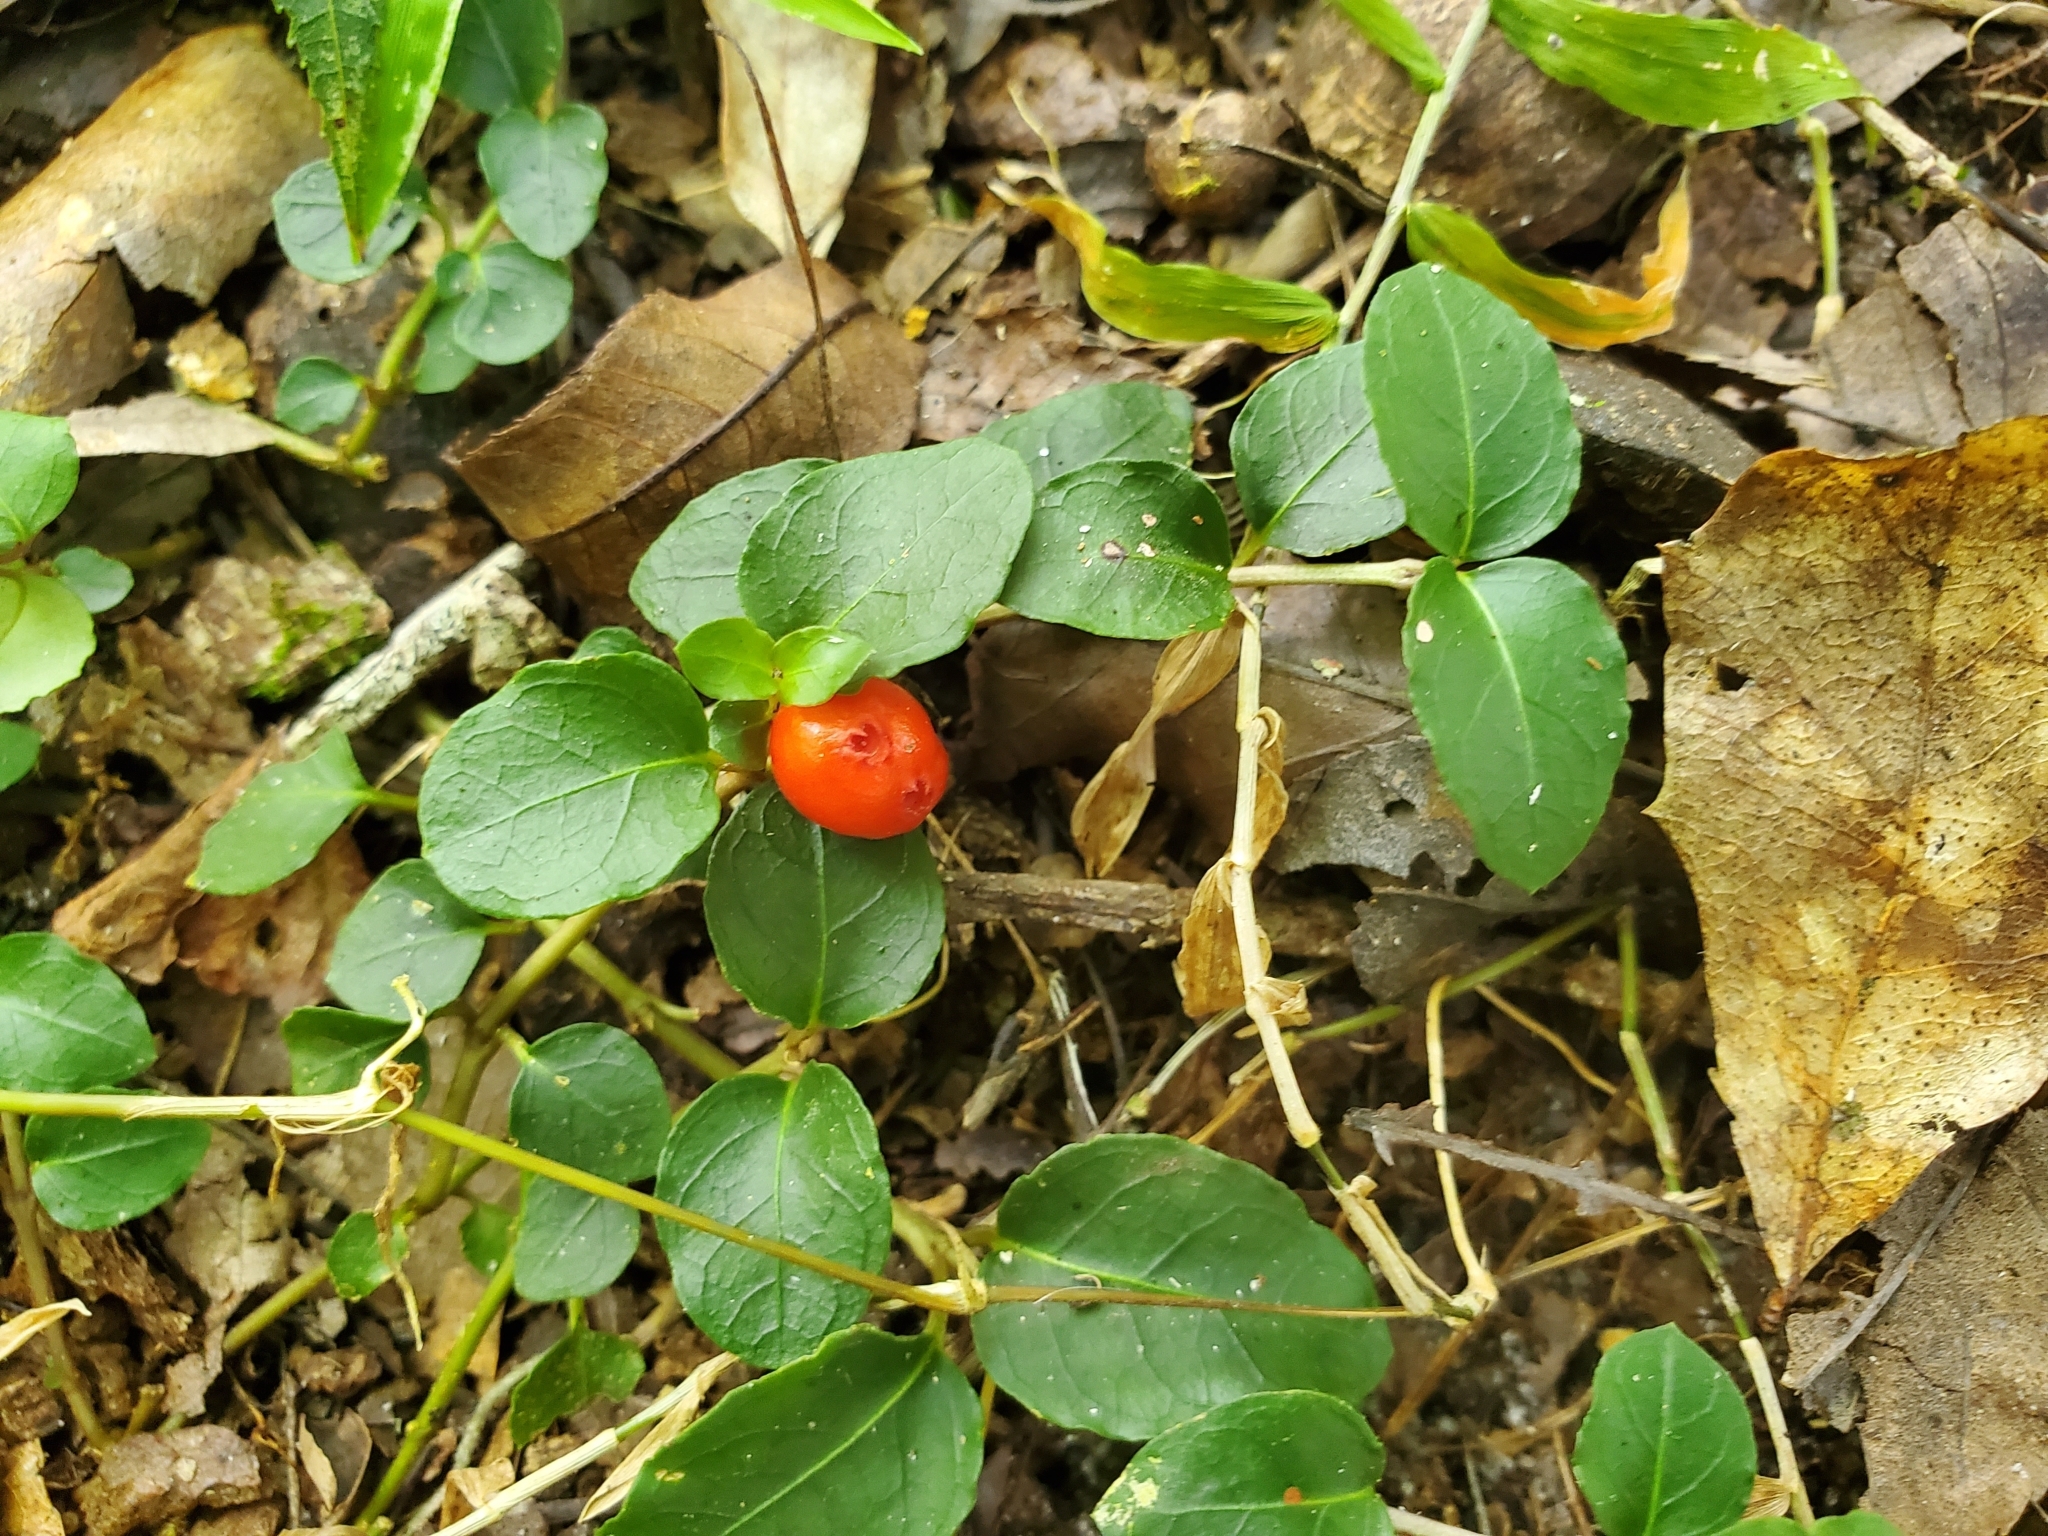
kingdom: Plantae
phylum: Tracheophyta
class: Magnoliopsida
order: Gentianales
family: Rubiaceae
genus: Mitchella
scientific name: Mitchella repens
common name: Partridge-berry
